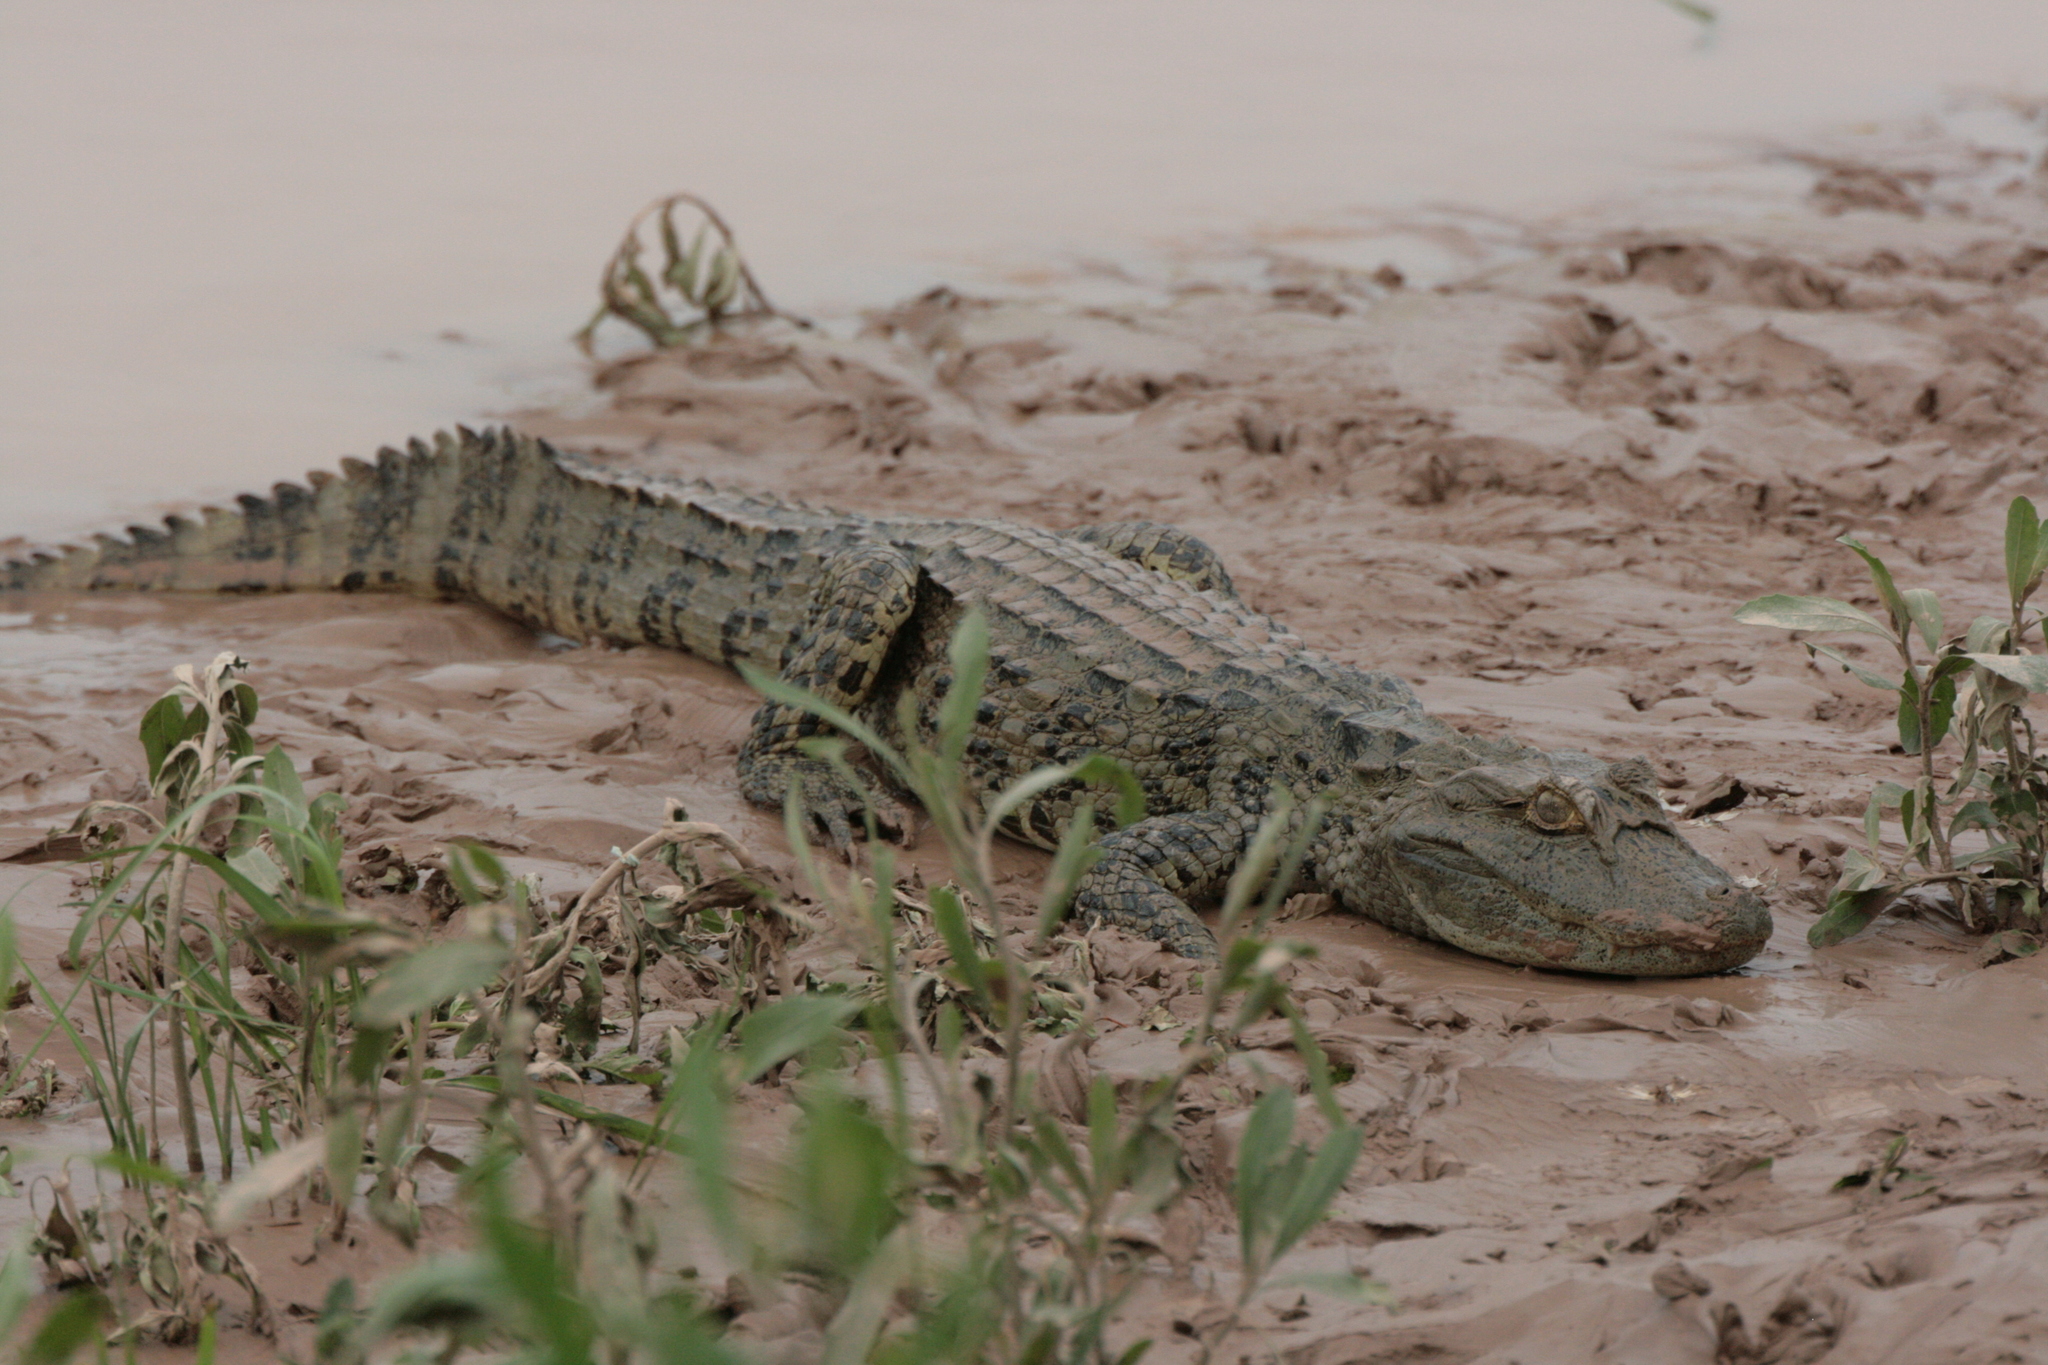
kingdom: Animalia
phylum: Chordata
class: Crocodylia
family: Alligatoridae
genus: Caiman
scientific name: Caiman latirostris
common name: Broad-snouted caiman
